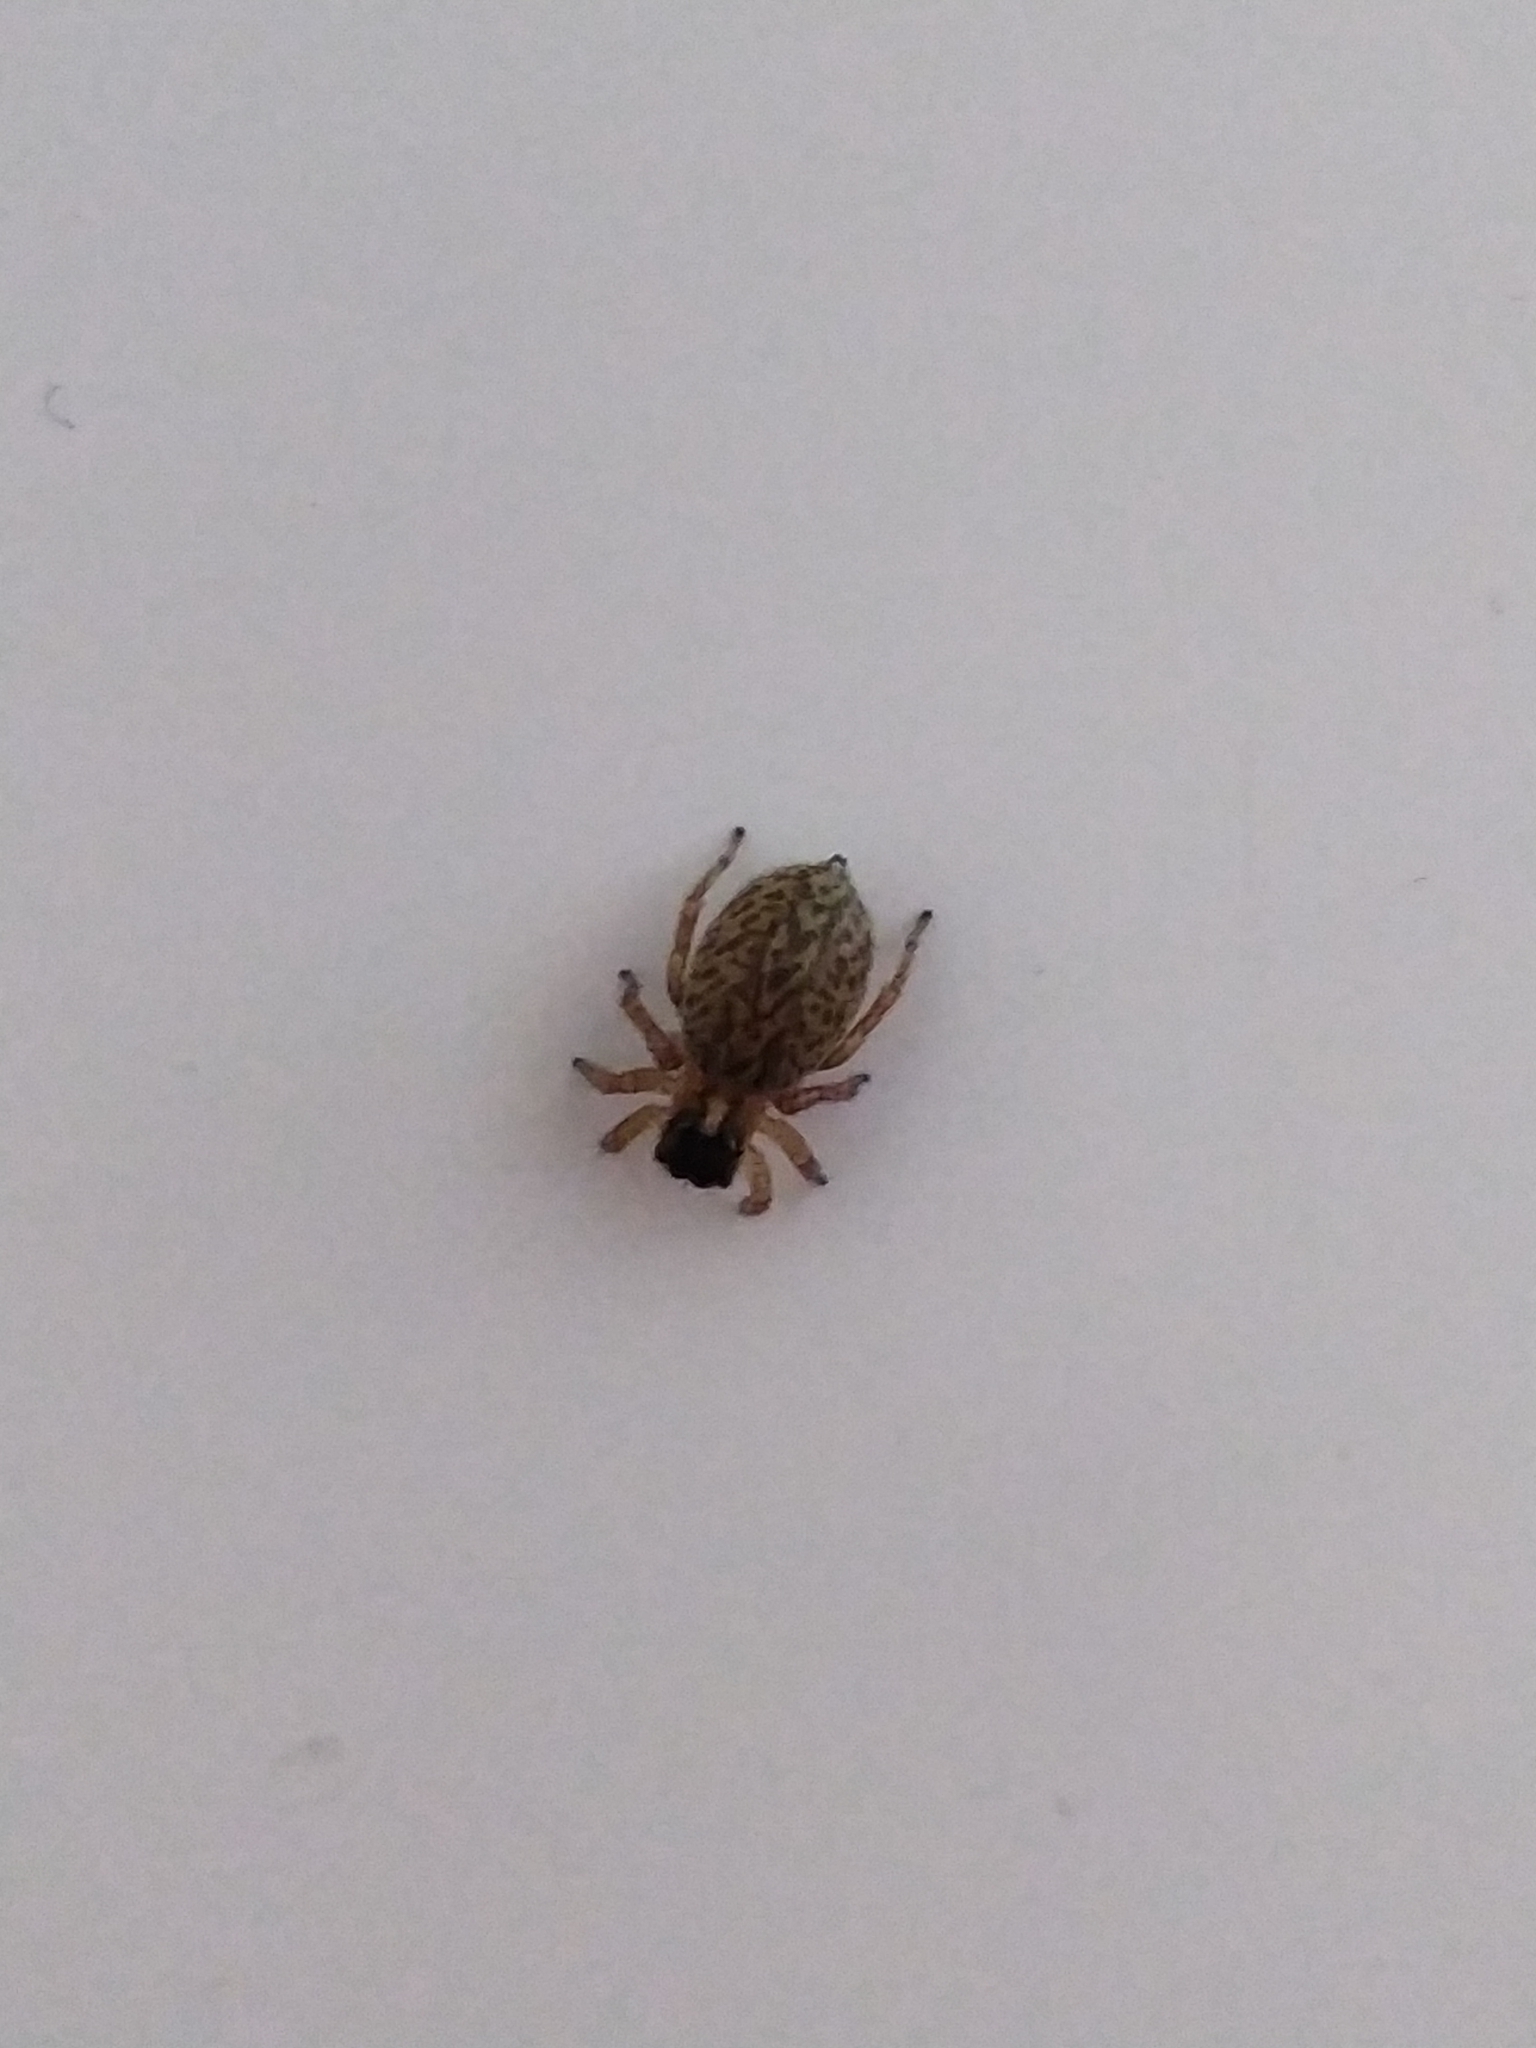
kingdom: Animalia
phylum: Arthropoda
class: Arachnida
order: Araneae
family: Salticidae
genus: Saitis
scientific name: Saitis barbipes
